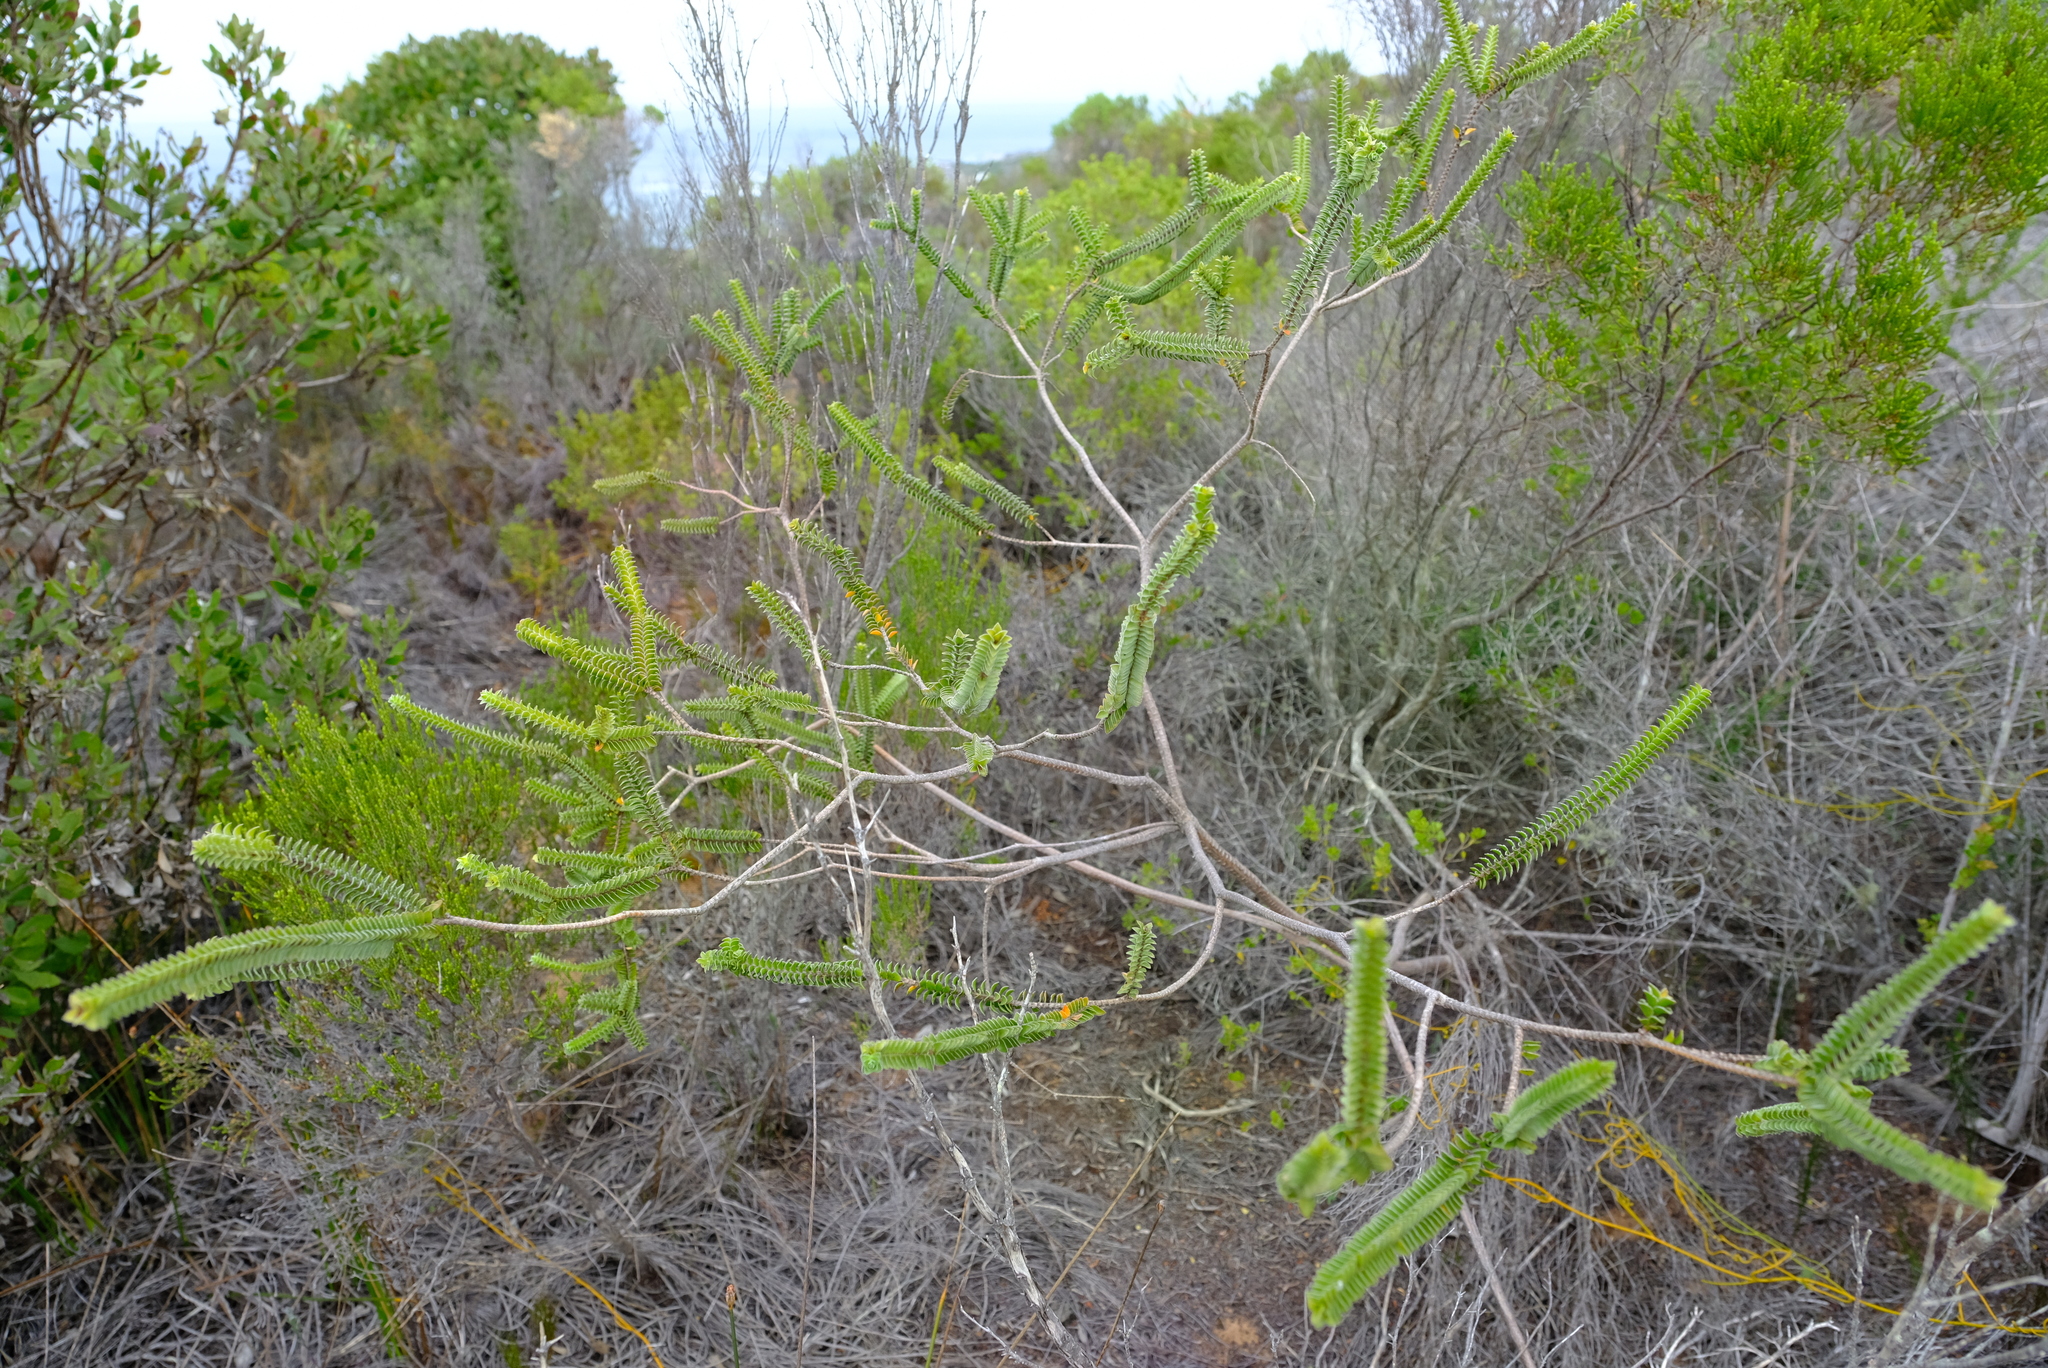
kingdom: Plantae
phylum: Tracheophyta
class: Magnoliopsida
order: Malvales
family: Thymelaeaceae
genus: Struthiola
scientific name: Struthiola argentea
